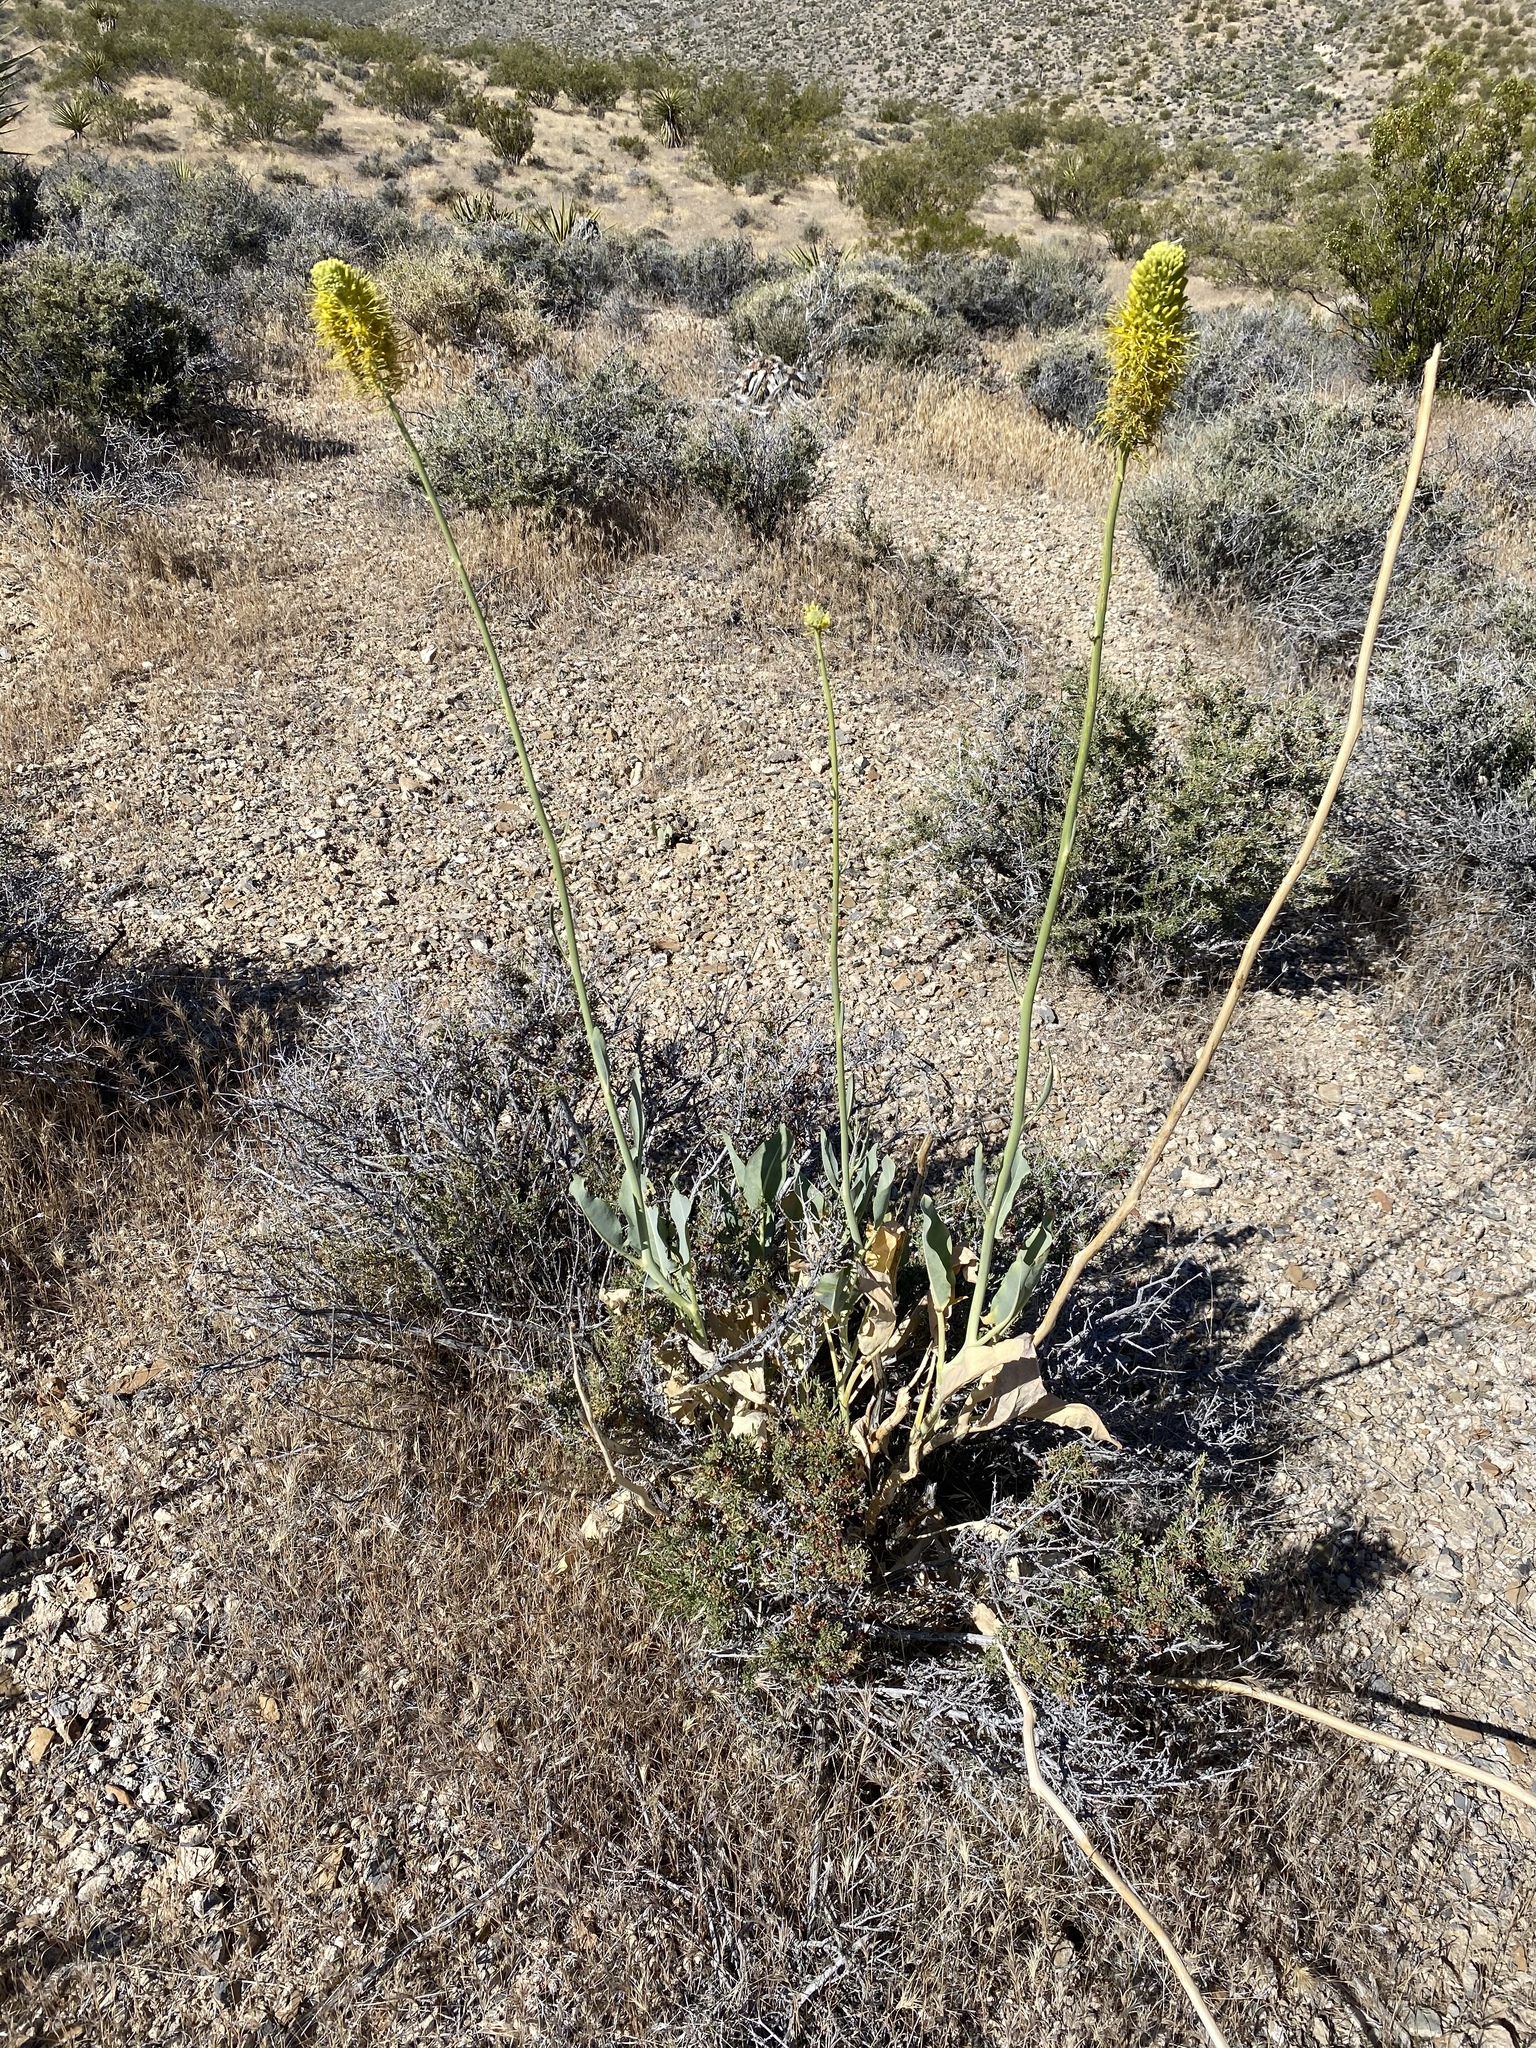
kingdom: Plantae
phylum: Tracheophyta
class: Magnoliopsida
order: Brassicales
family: Brassicaceae
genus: Stanleya
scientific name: Stanleya elata
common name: Panamint prince's plume
